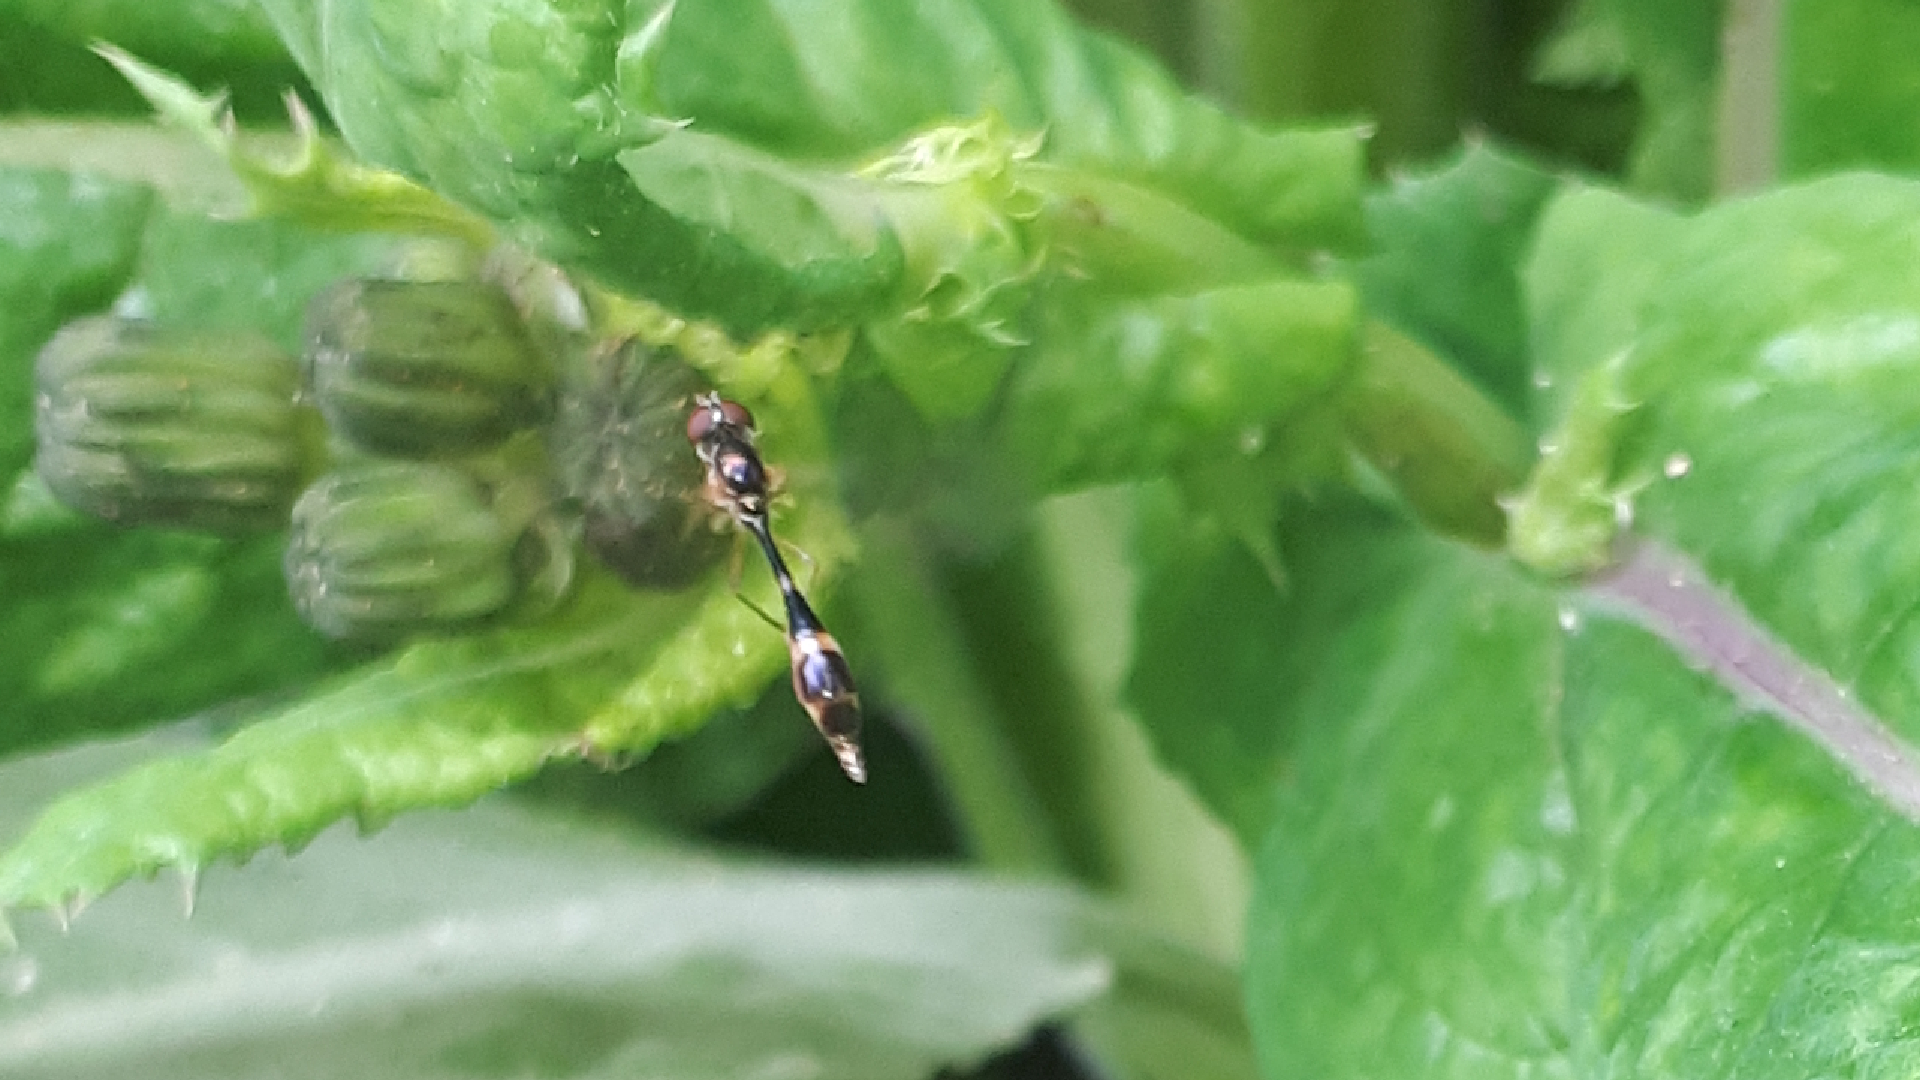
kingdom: Animalia
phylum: Arthropoda
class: Insecta
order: Diptera
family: Syrphidae
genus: Baccha
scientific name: Baccha elongata
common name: Common dainty
